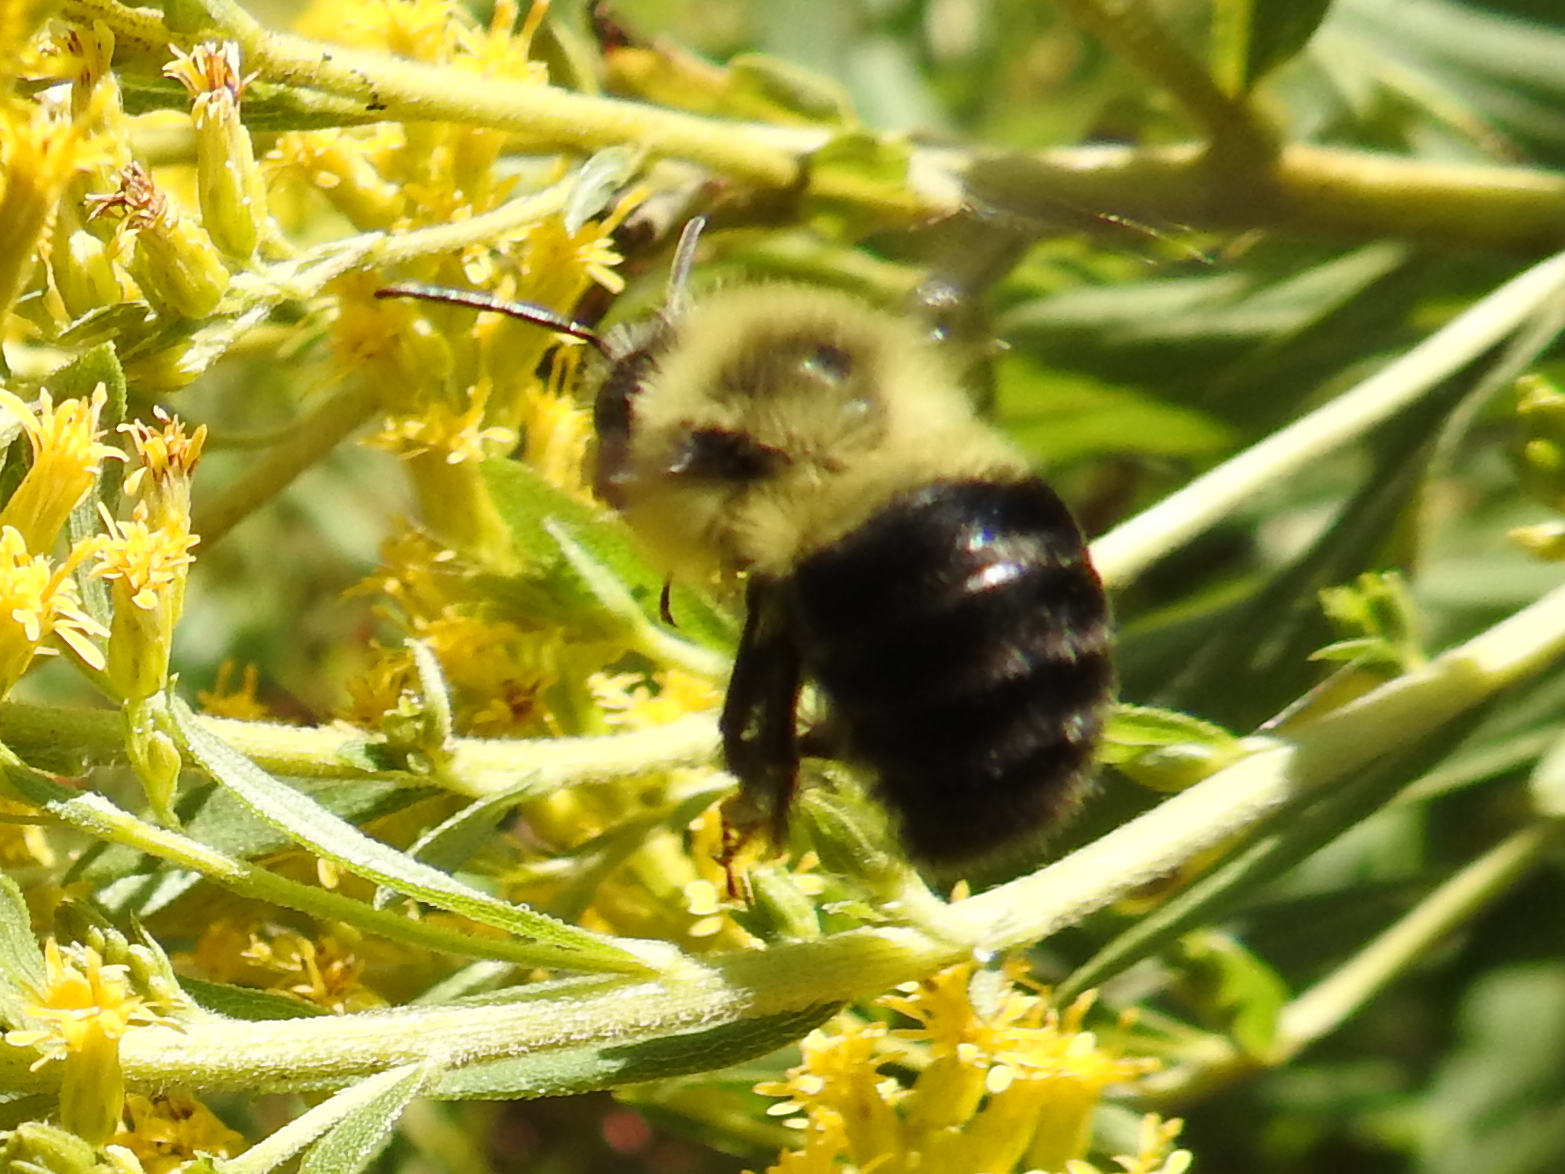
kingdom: Animalia
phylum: Arthropoda
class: Insecta
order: Hymenoptera
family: Apidae
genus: Bombus
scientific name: Bombus impatiens
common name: Common eastern bumble bee
